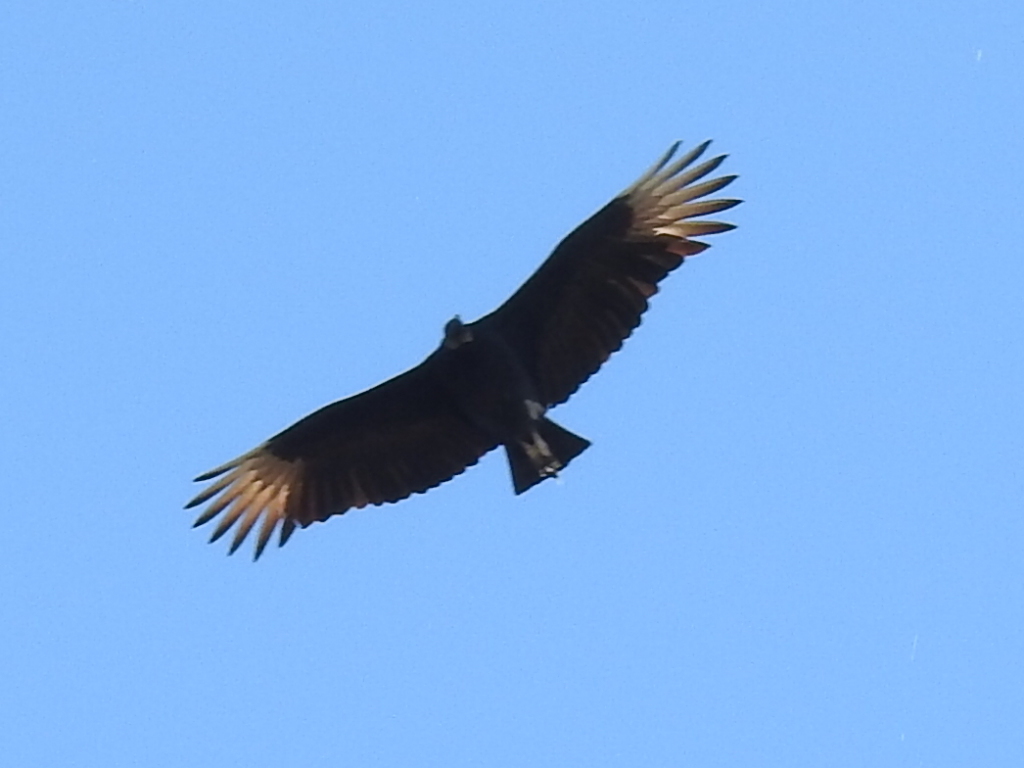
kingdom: Animalia
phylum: Chordata
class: Aves
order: Accipitriformes
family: Cathartidae
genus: Coragyps
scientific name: Coragyps atratus
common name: Black vulture
